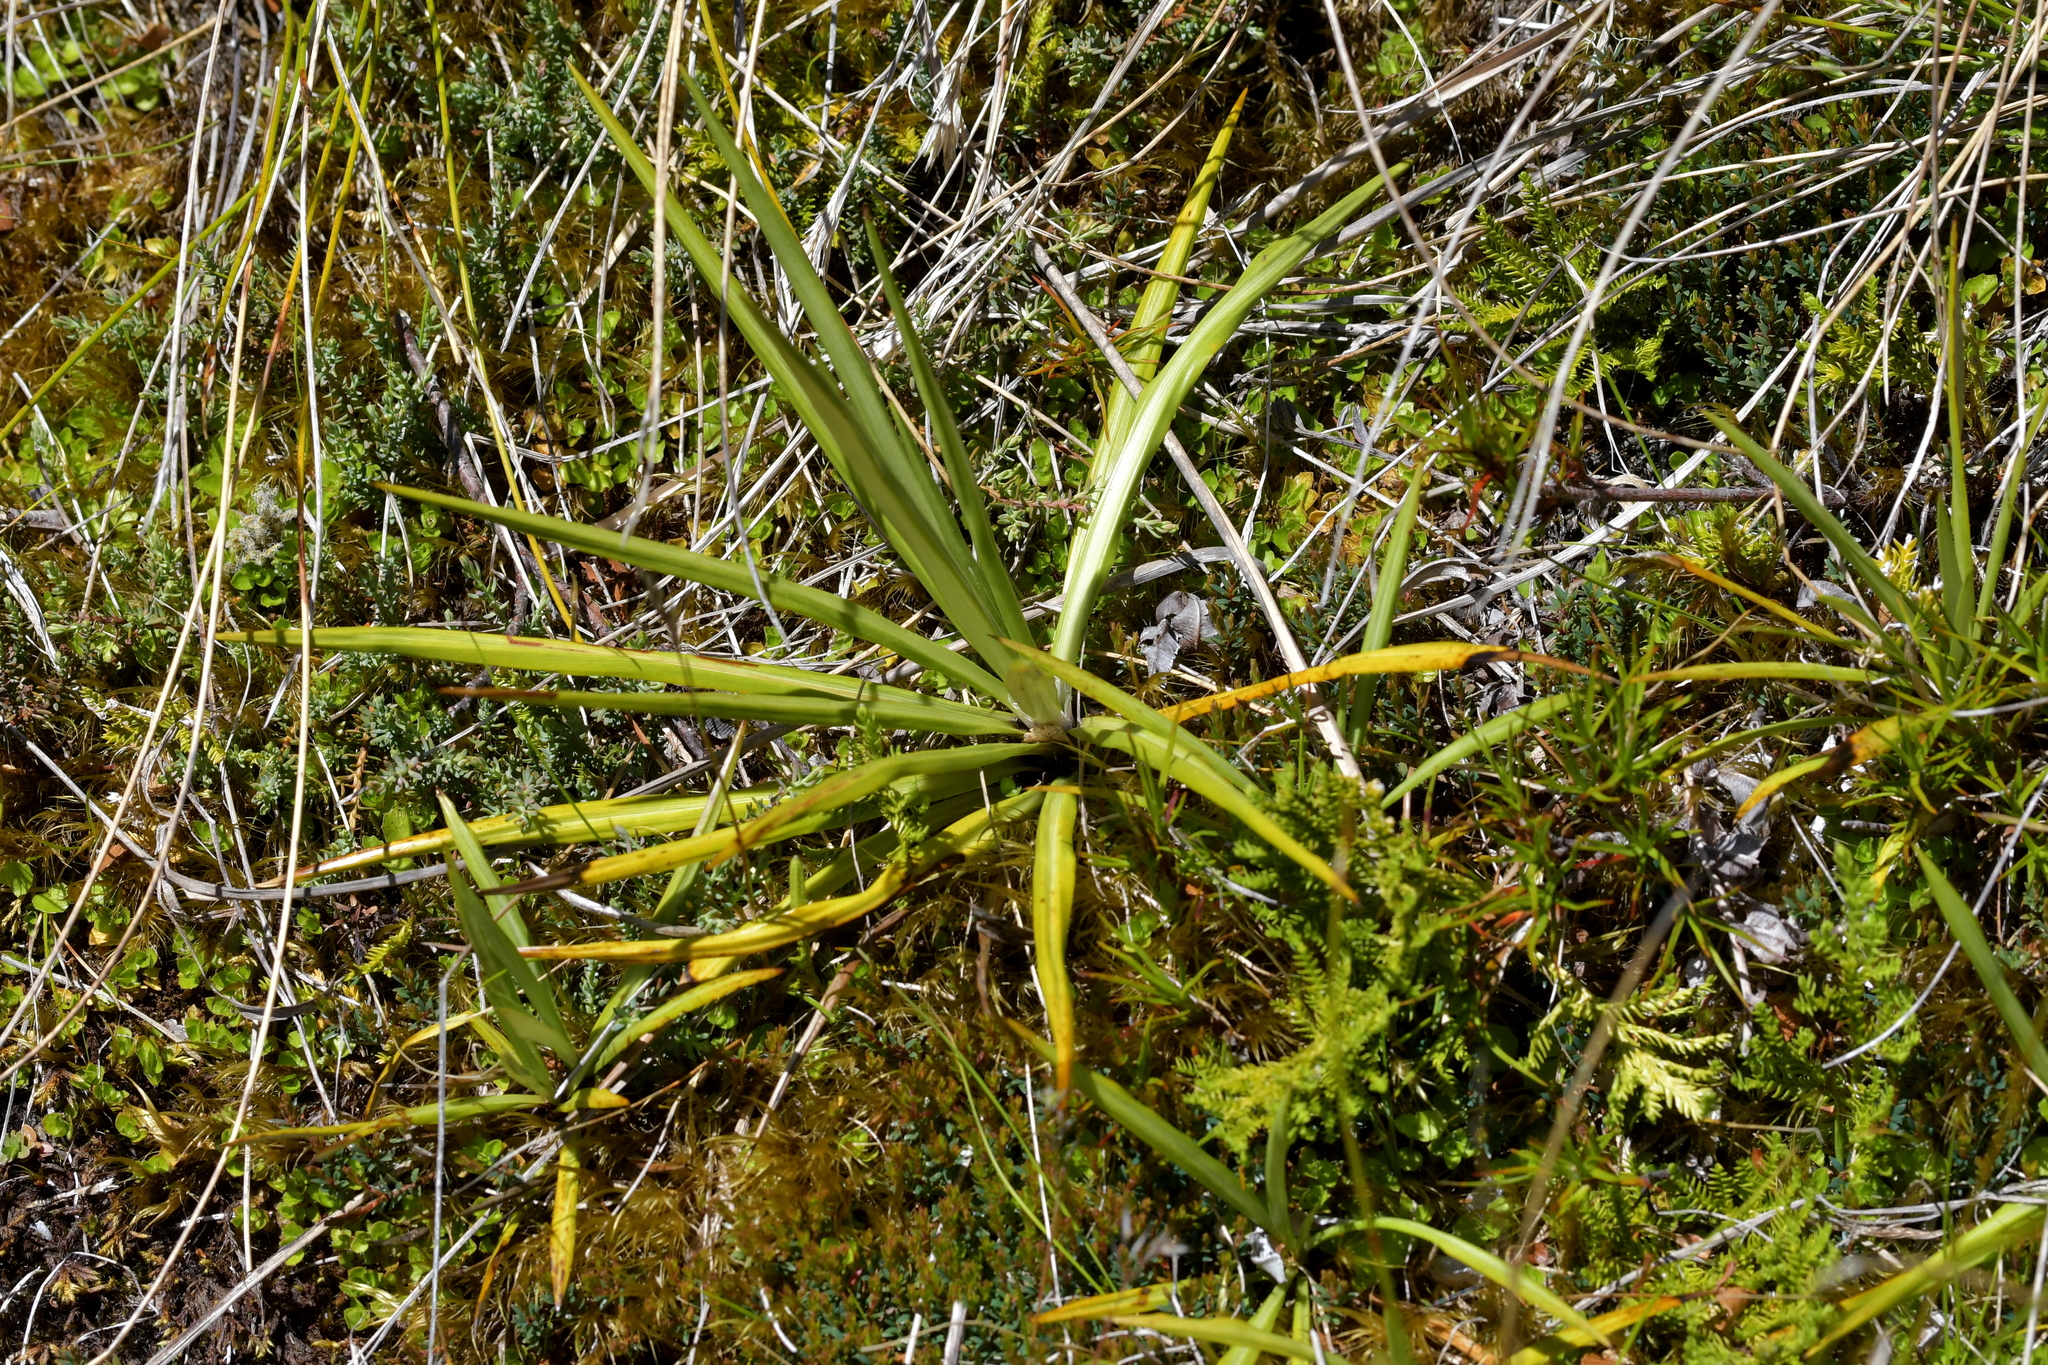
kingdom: Plantae
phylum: Tracheophyta
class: Magnoliopsida
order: Asterales
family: Asteraceae
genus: Celmisia
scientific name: Celmisia petriei
